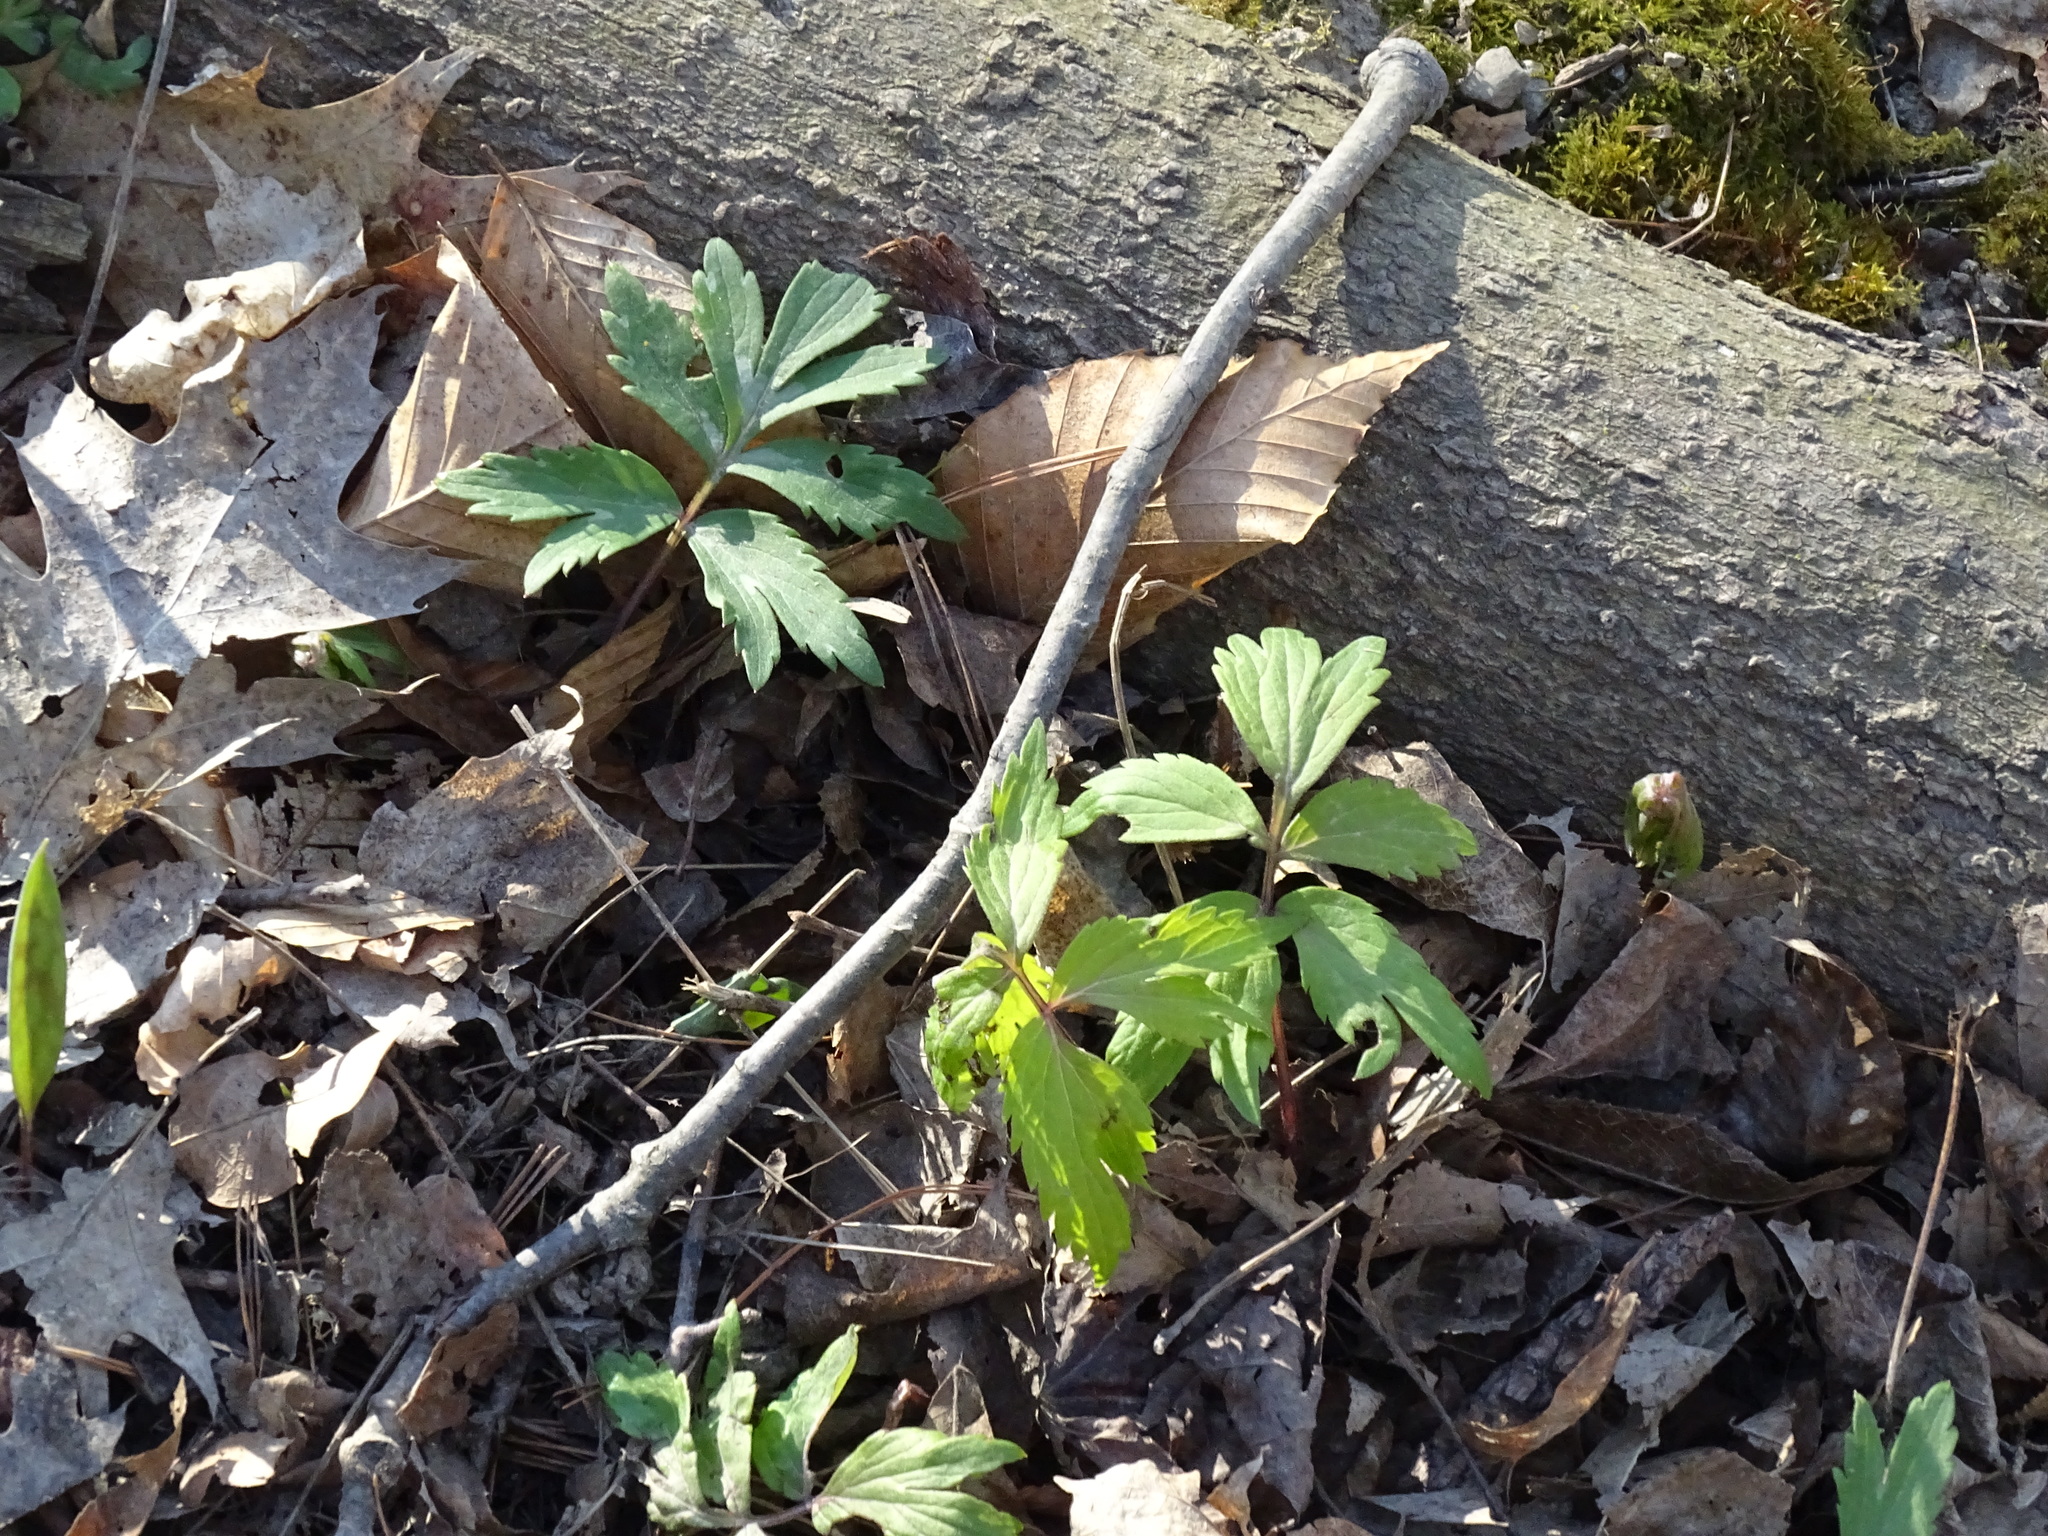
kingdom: Plantae
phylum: Tracheophyta
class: Magnoliopsida
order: Boraginales
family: Hydrophyllaceae
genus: Hydrophyllum
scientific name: Hydrophyllum virginianum
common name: Virginia waterleaf
